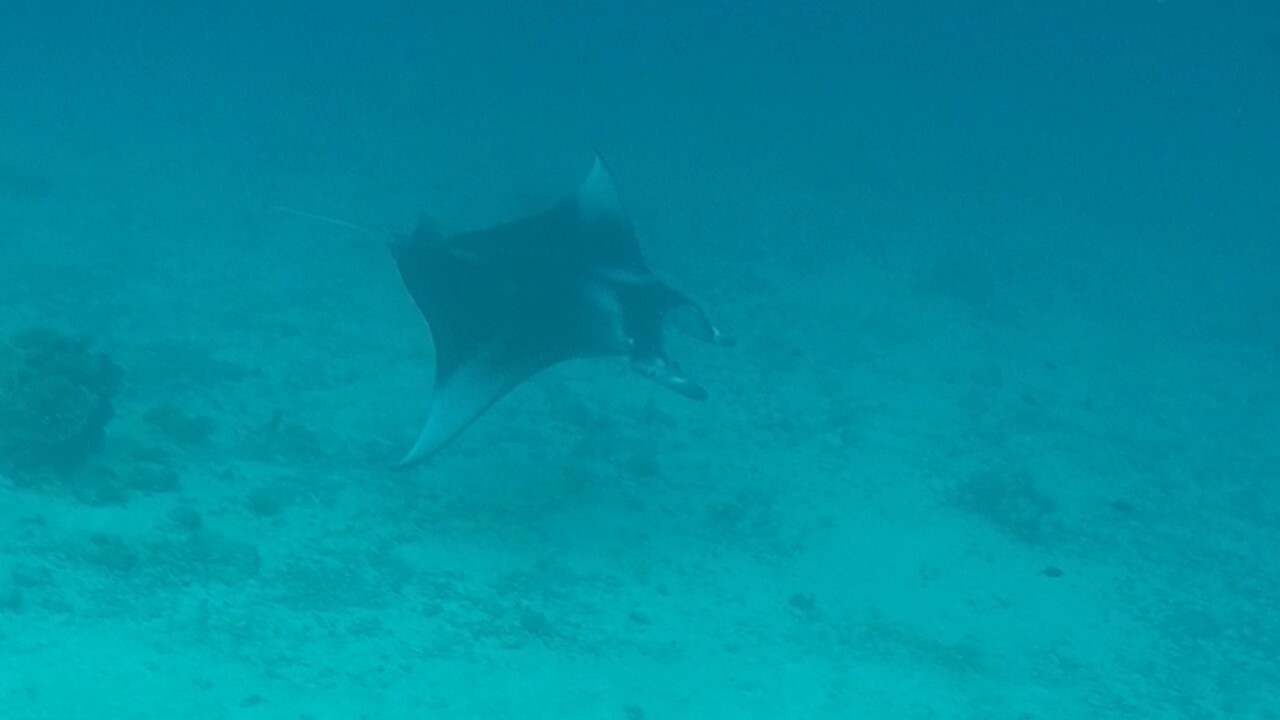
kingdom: Animalia
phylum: Chordata
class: Elasmobranchii
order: Myliobatiformes
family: Myliobatidae
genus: Mobula
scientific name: Mobula alfredi
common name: Reef manta ray
